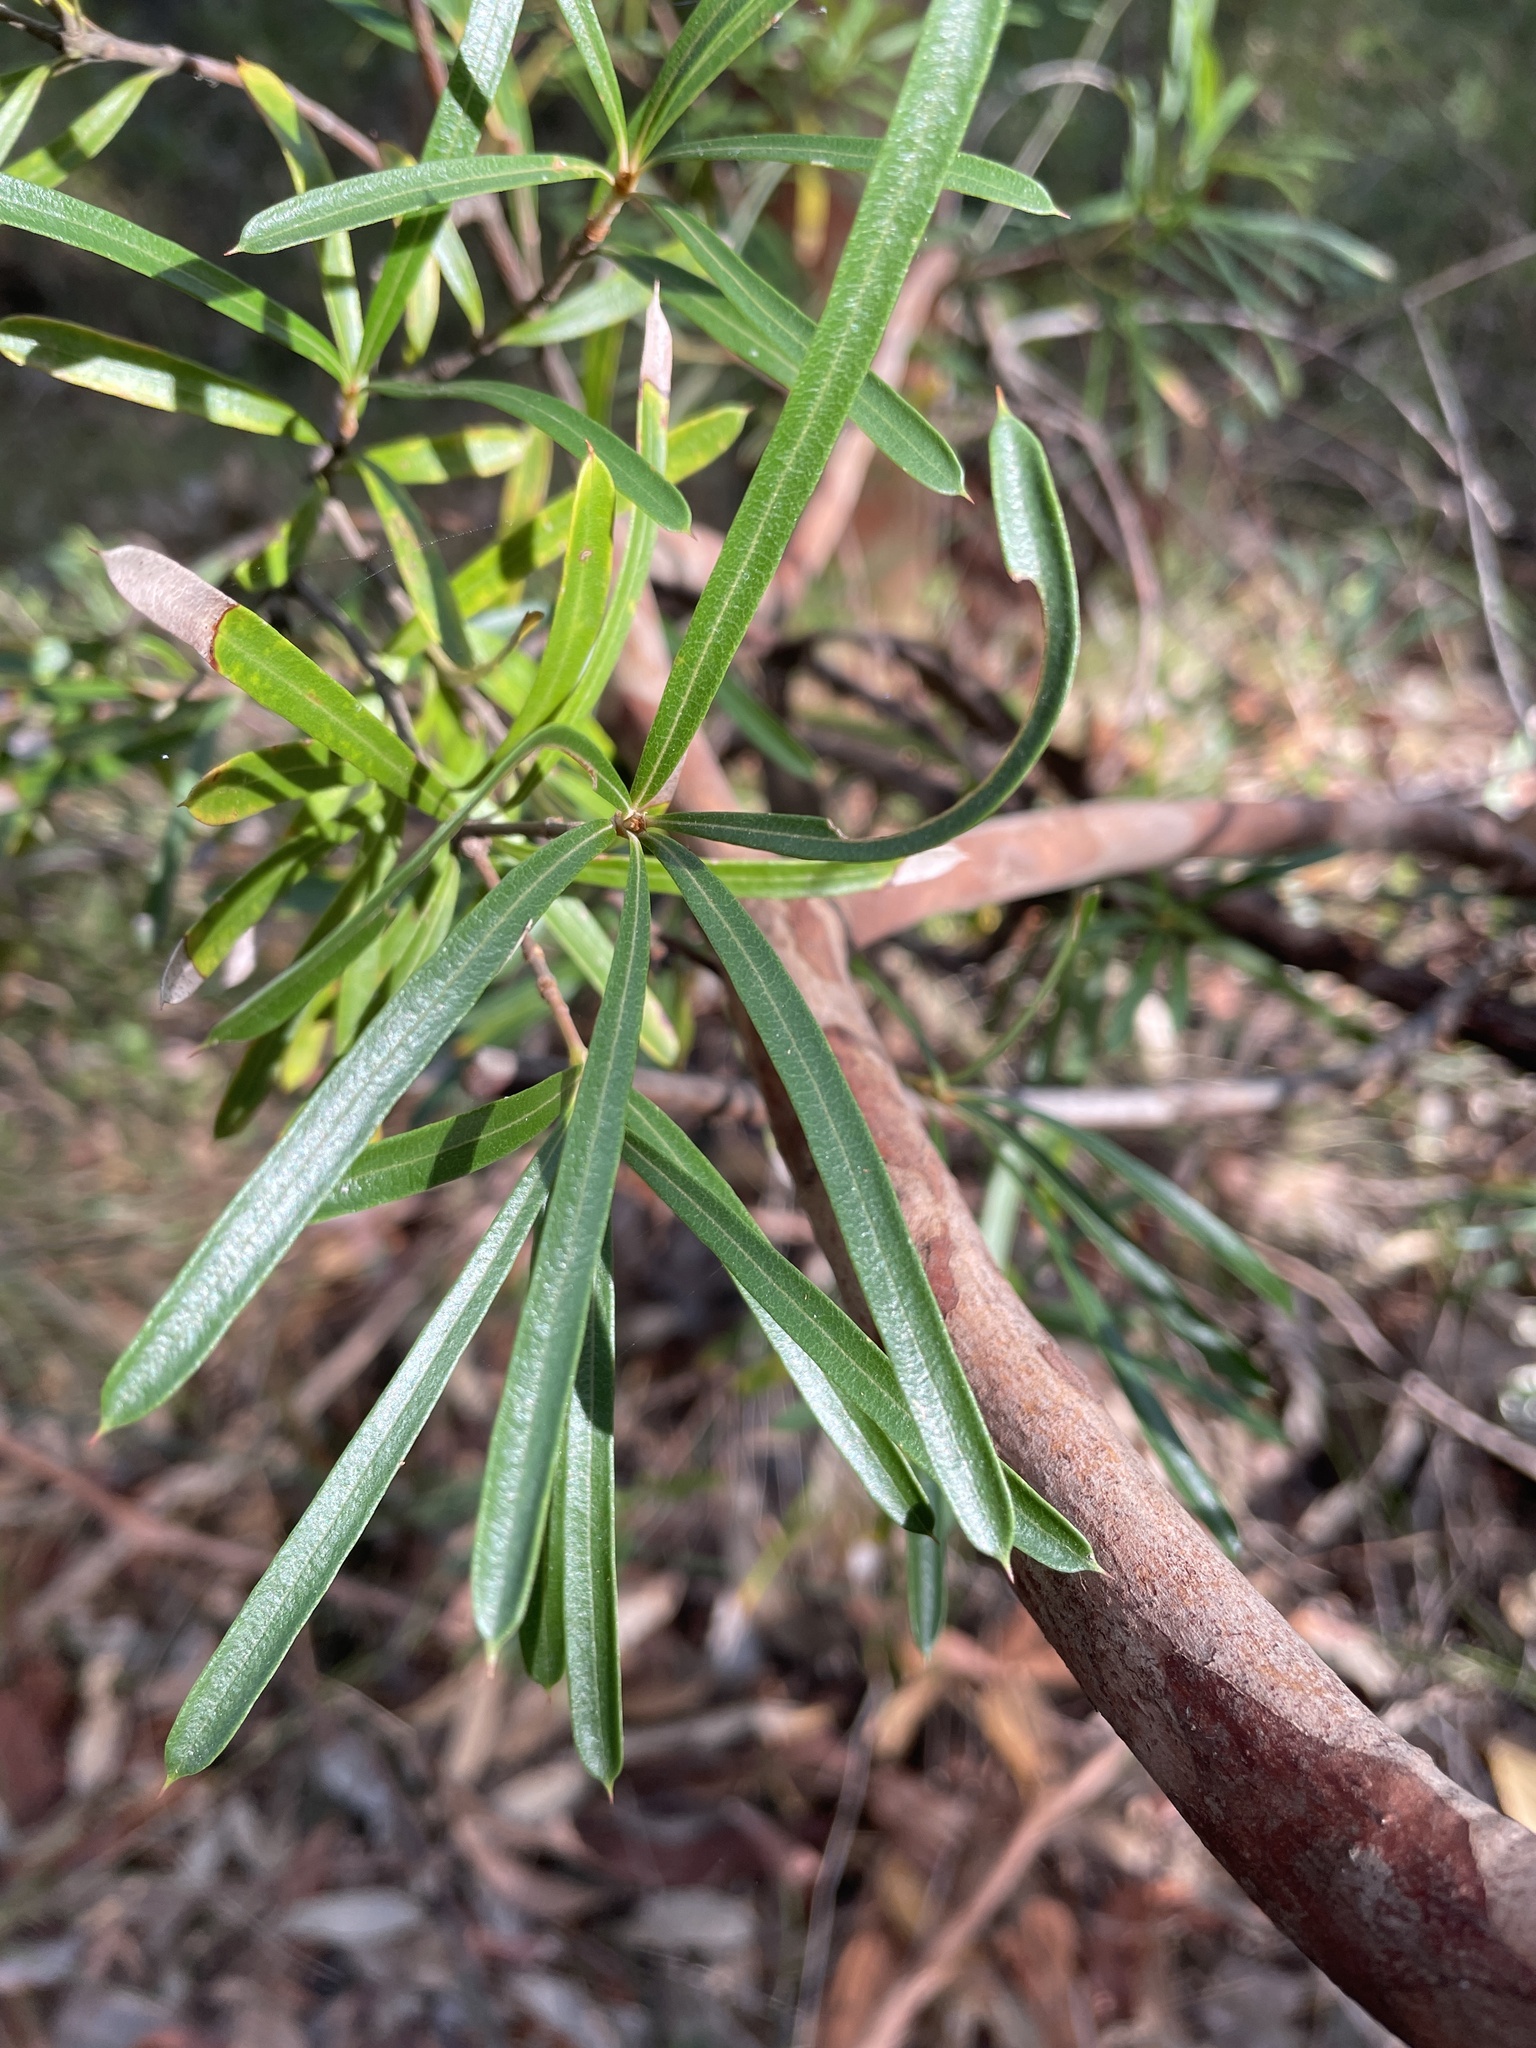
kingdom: Plantae
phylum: Tracheophyta
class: Magnoliopsida
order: Proteales
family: Proteaceae
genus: Lambertia
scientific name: Lambertia formosa
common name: Mountain-devil
